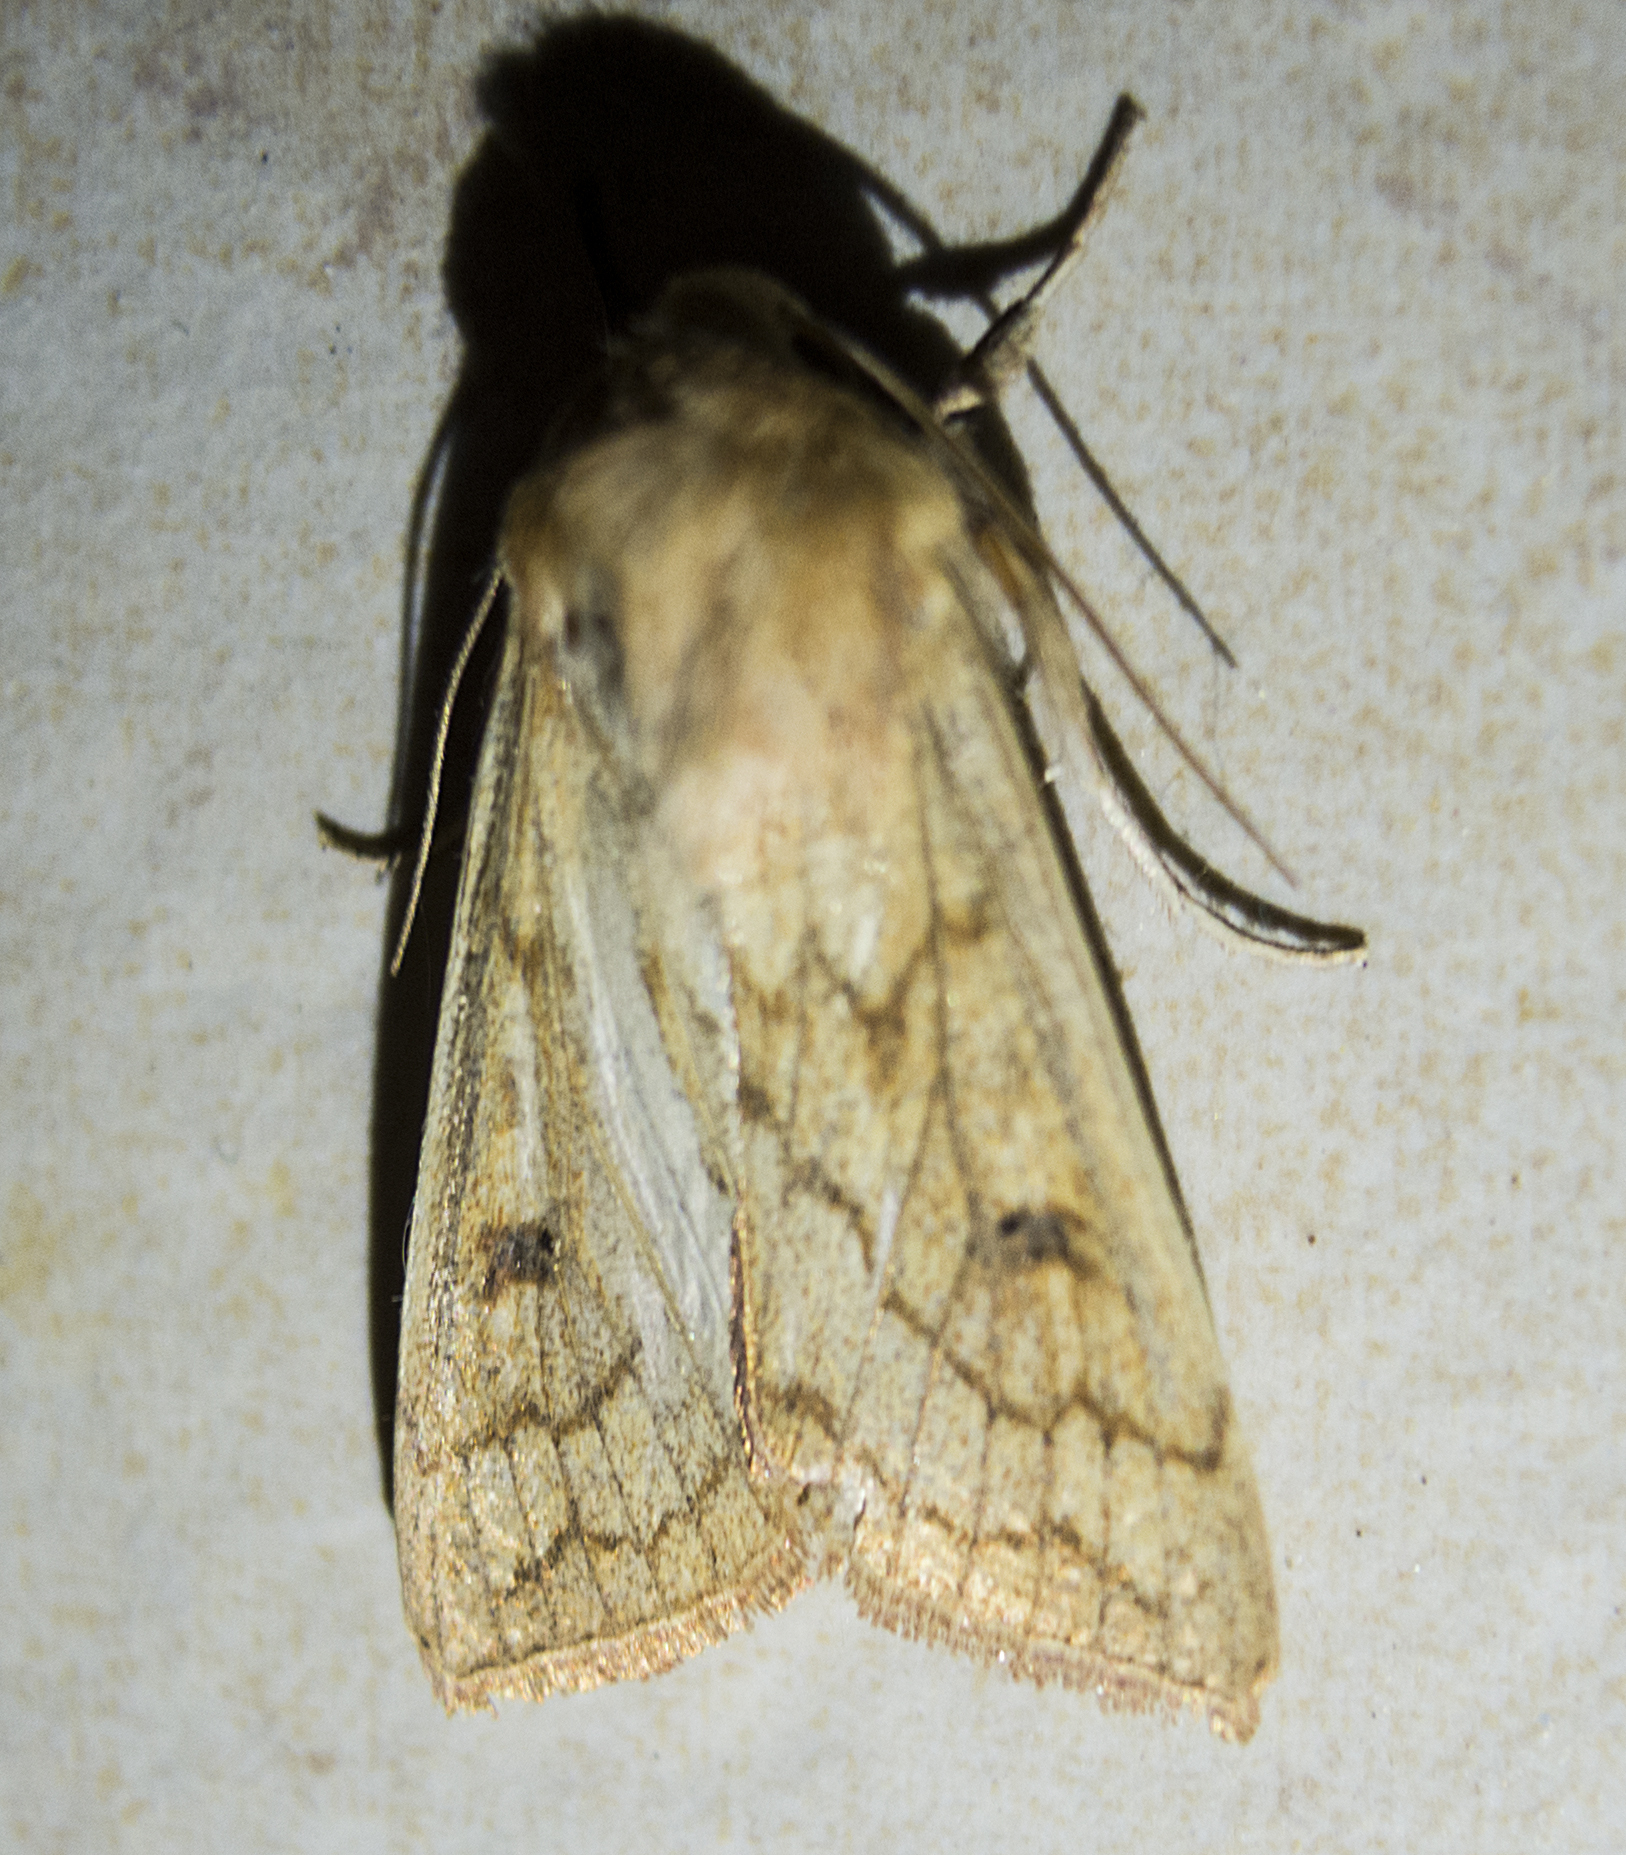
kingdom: Animalia
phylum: Arthropoda
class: Insecta
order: Lepidoptera
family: Noctuidae
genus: Mythimna
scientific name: Mythimna vitellina
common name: Delicate
